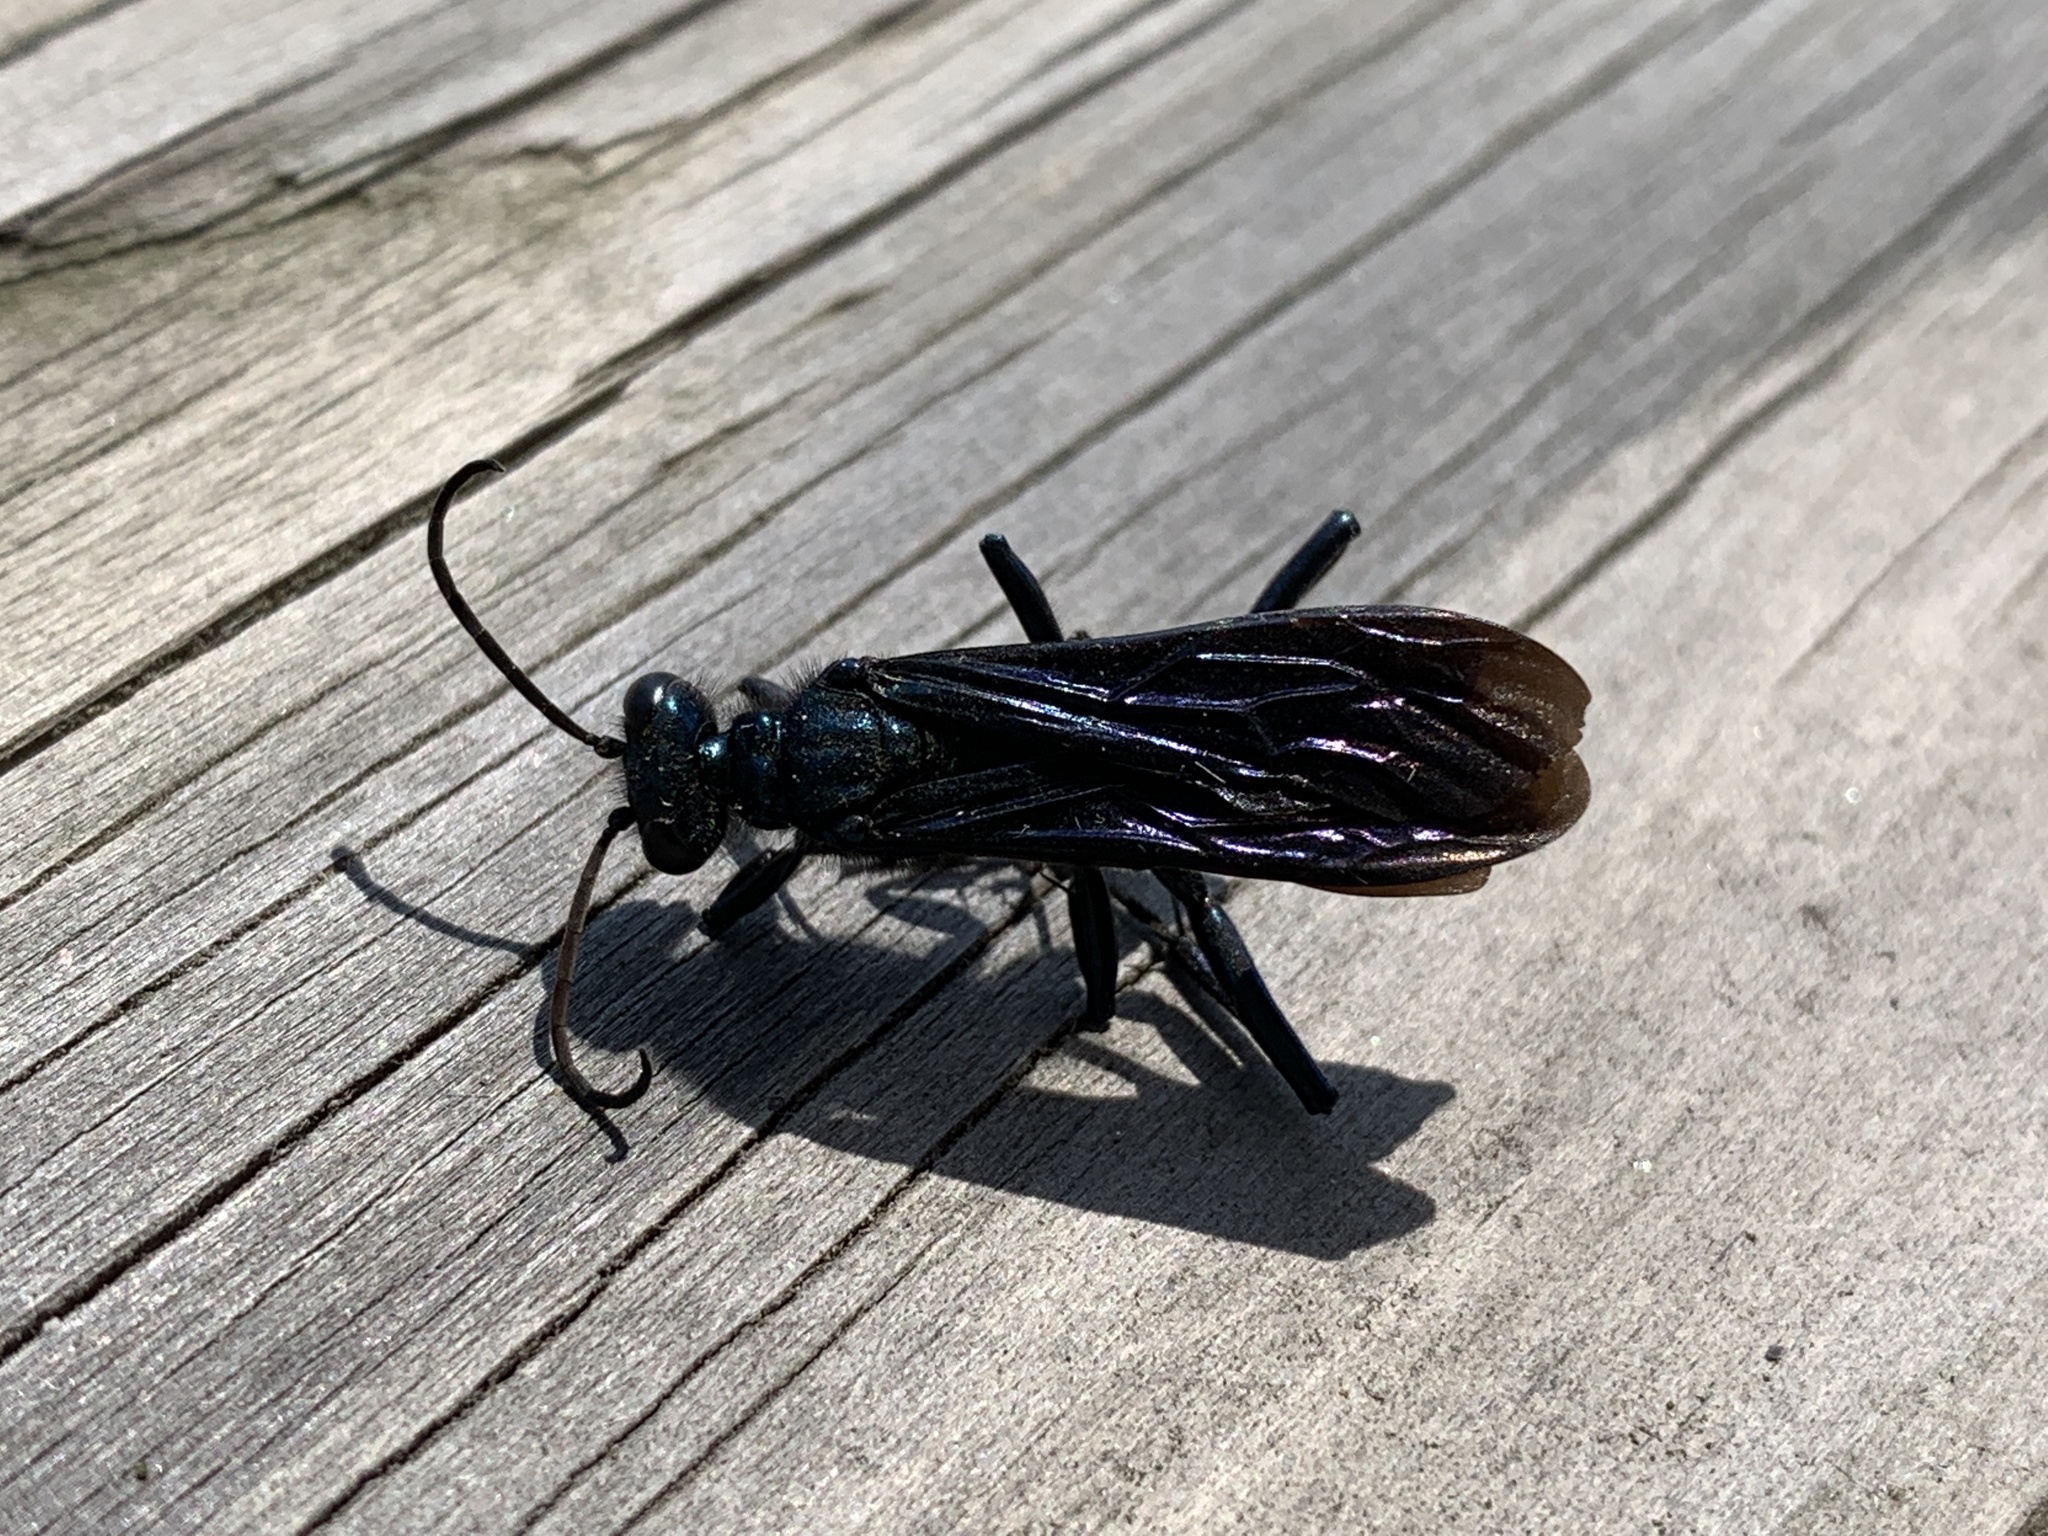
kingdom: Animalia
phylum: Arthropoda
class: Insecta
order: Hymenoptera
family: Sphecidae
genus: Chalybion
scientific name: Chalybion californicum
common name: Mud dauber
